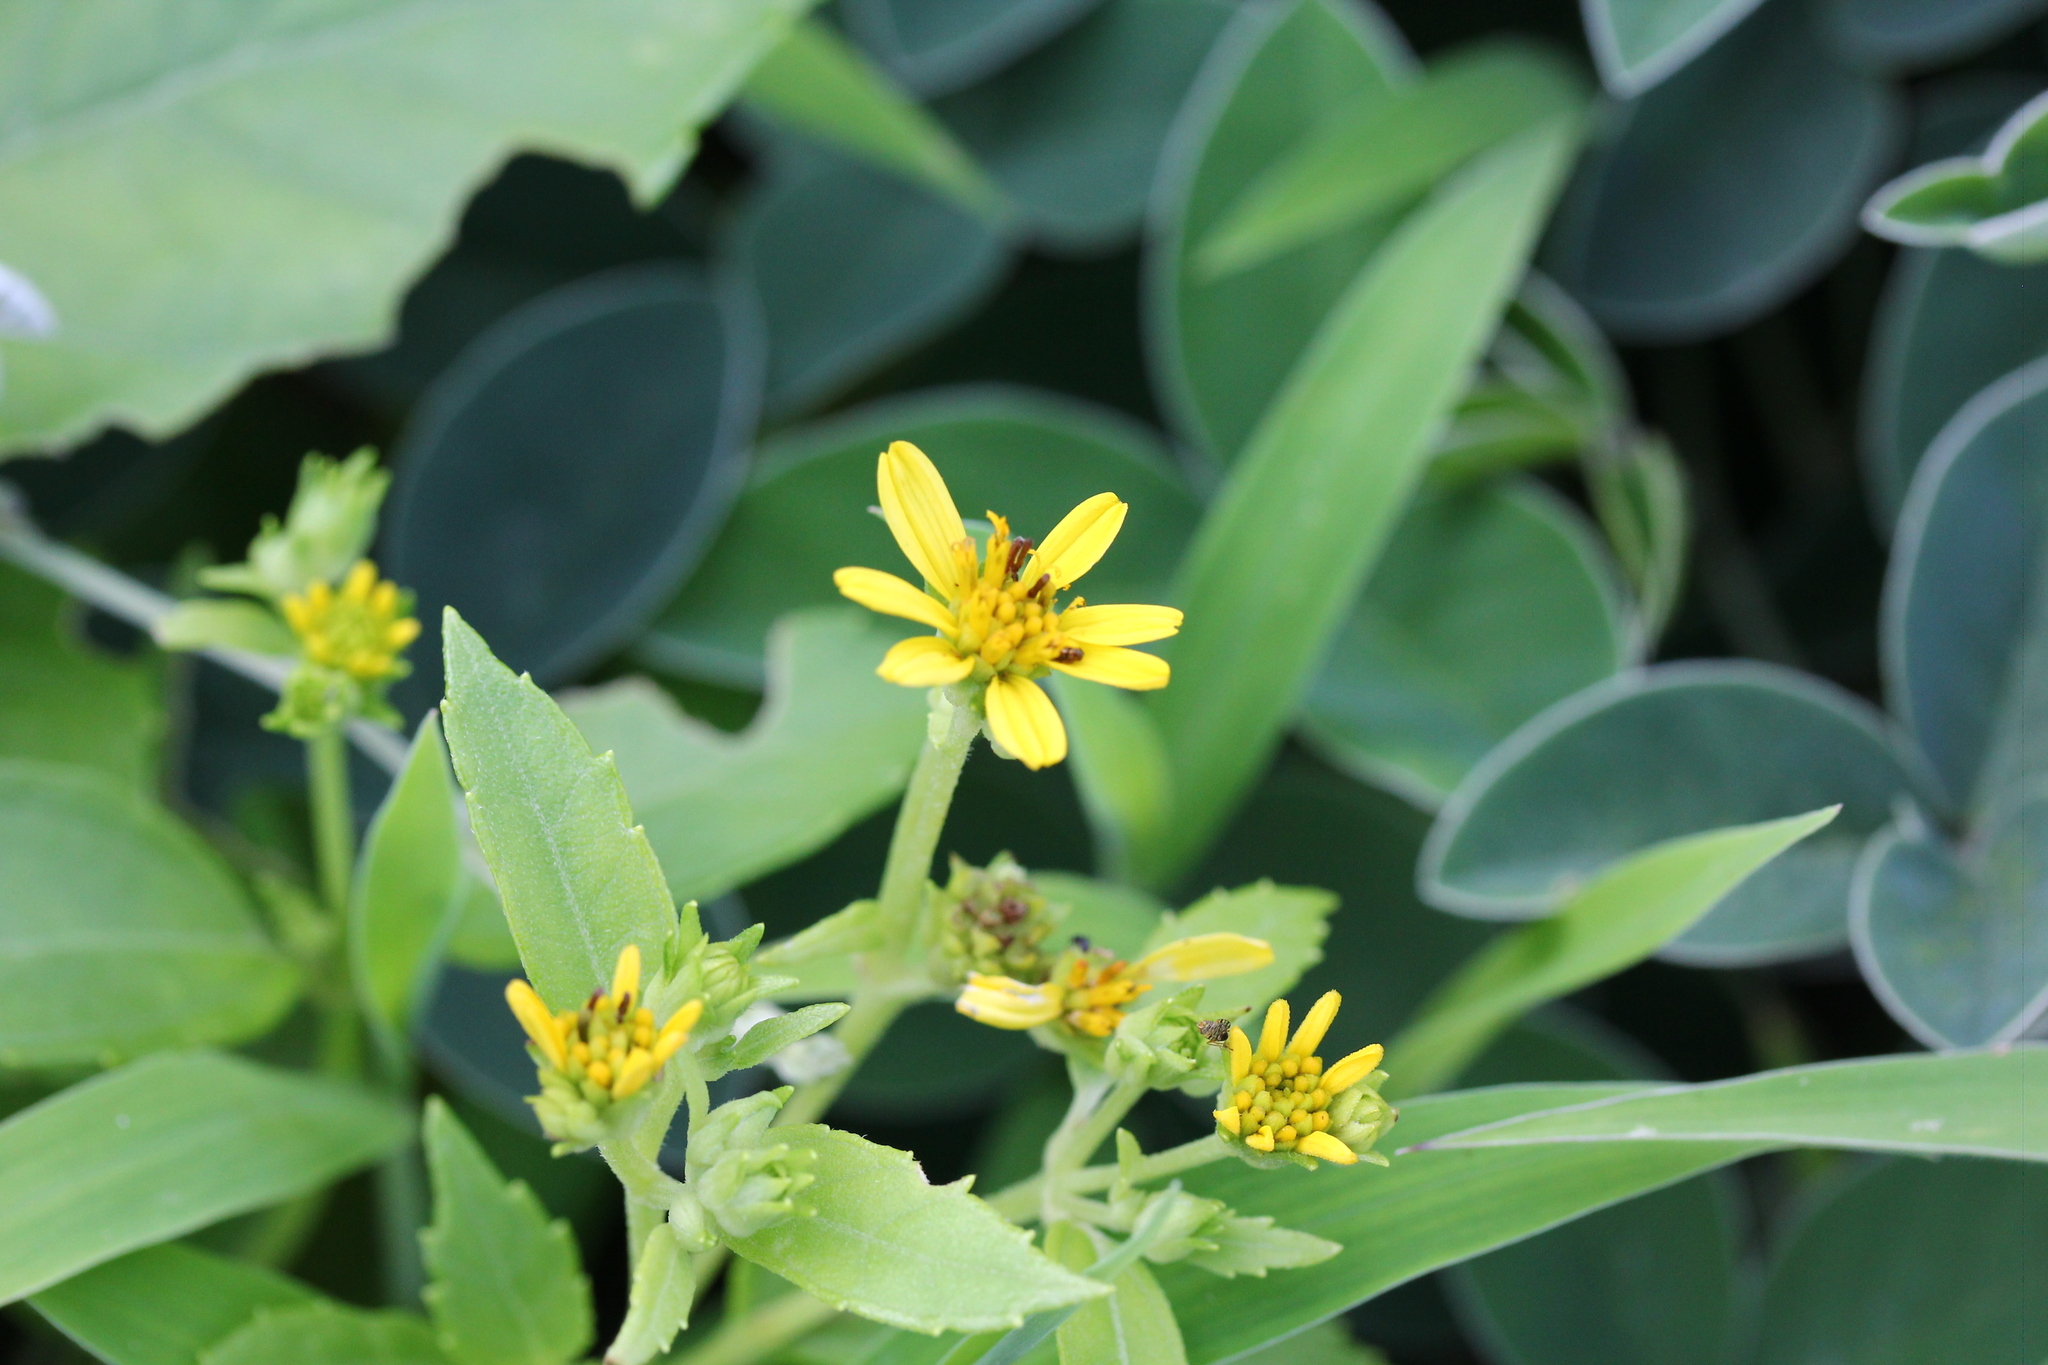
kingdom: Plantae
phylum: Tracheophyta
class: Magnoliopsida
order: Asterales
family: Asteraceae
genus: Wollastonia
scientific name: Wollastonia biflora
